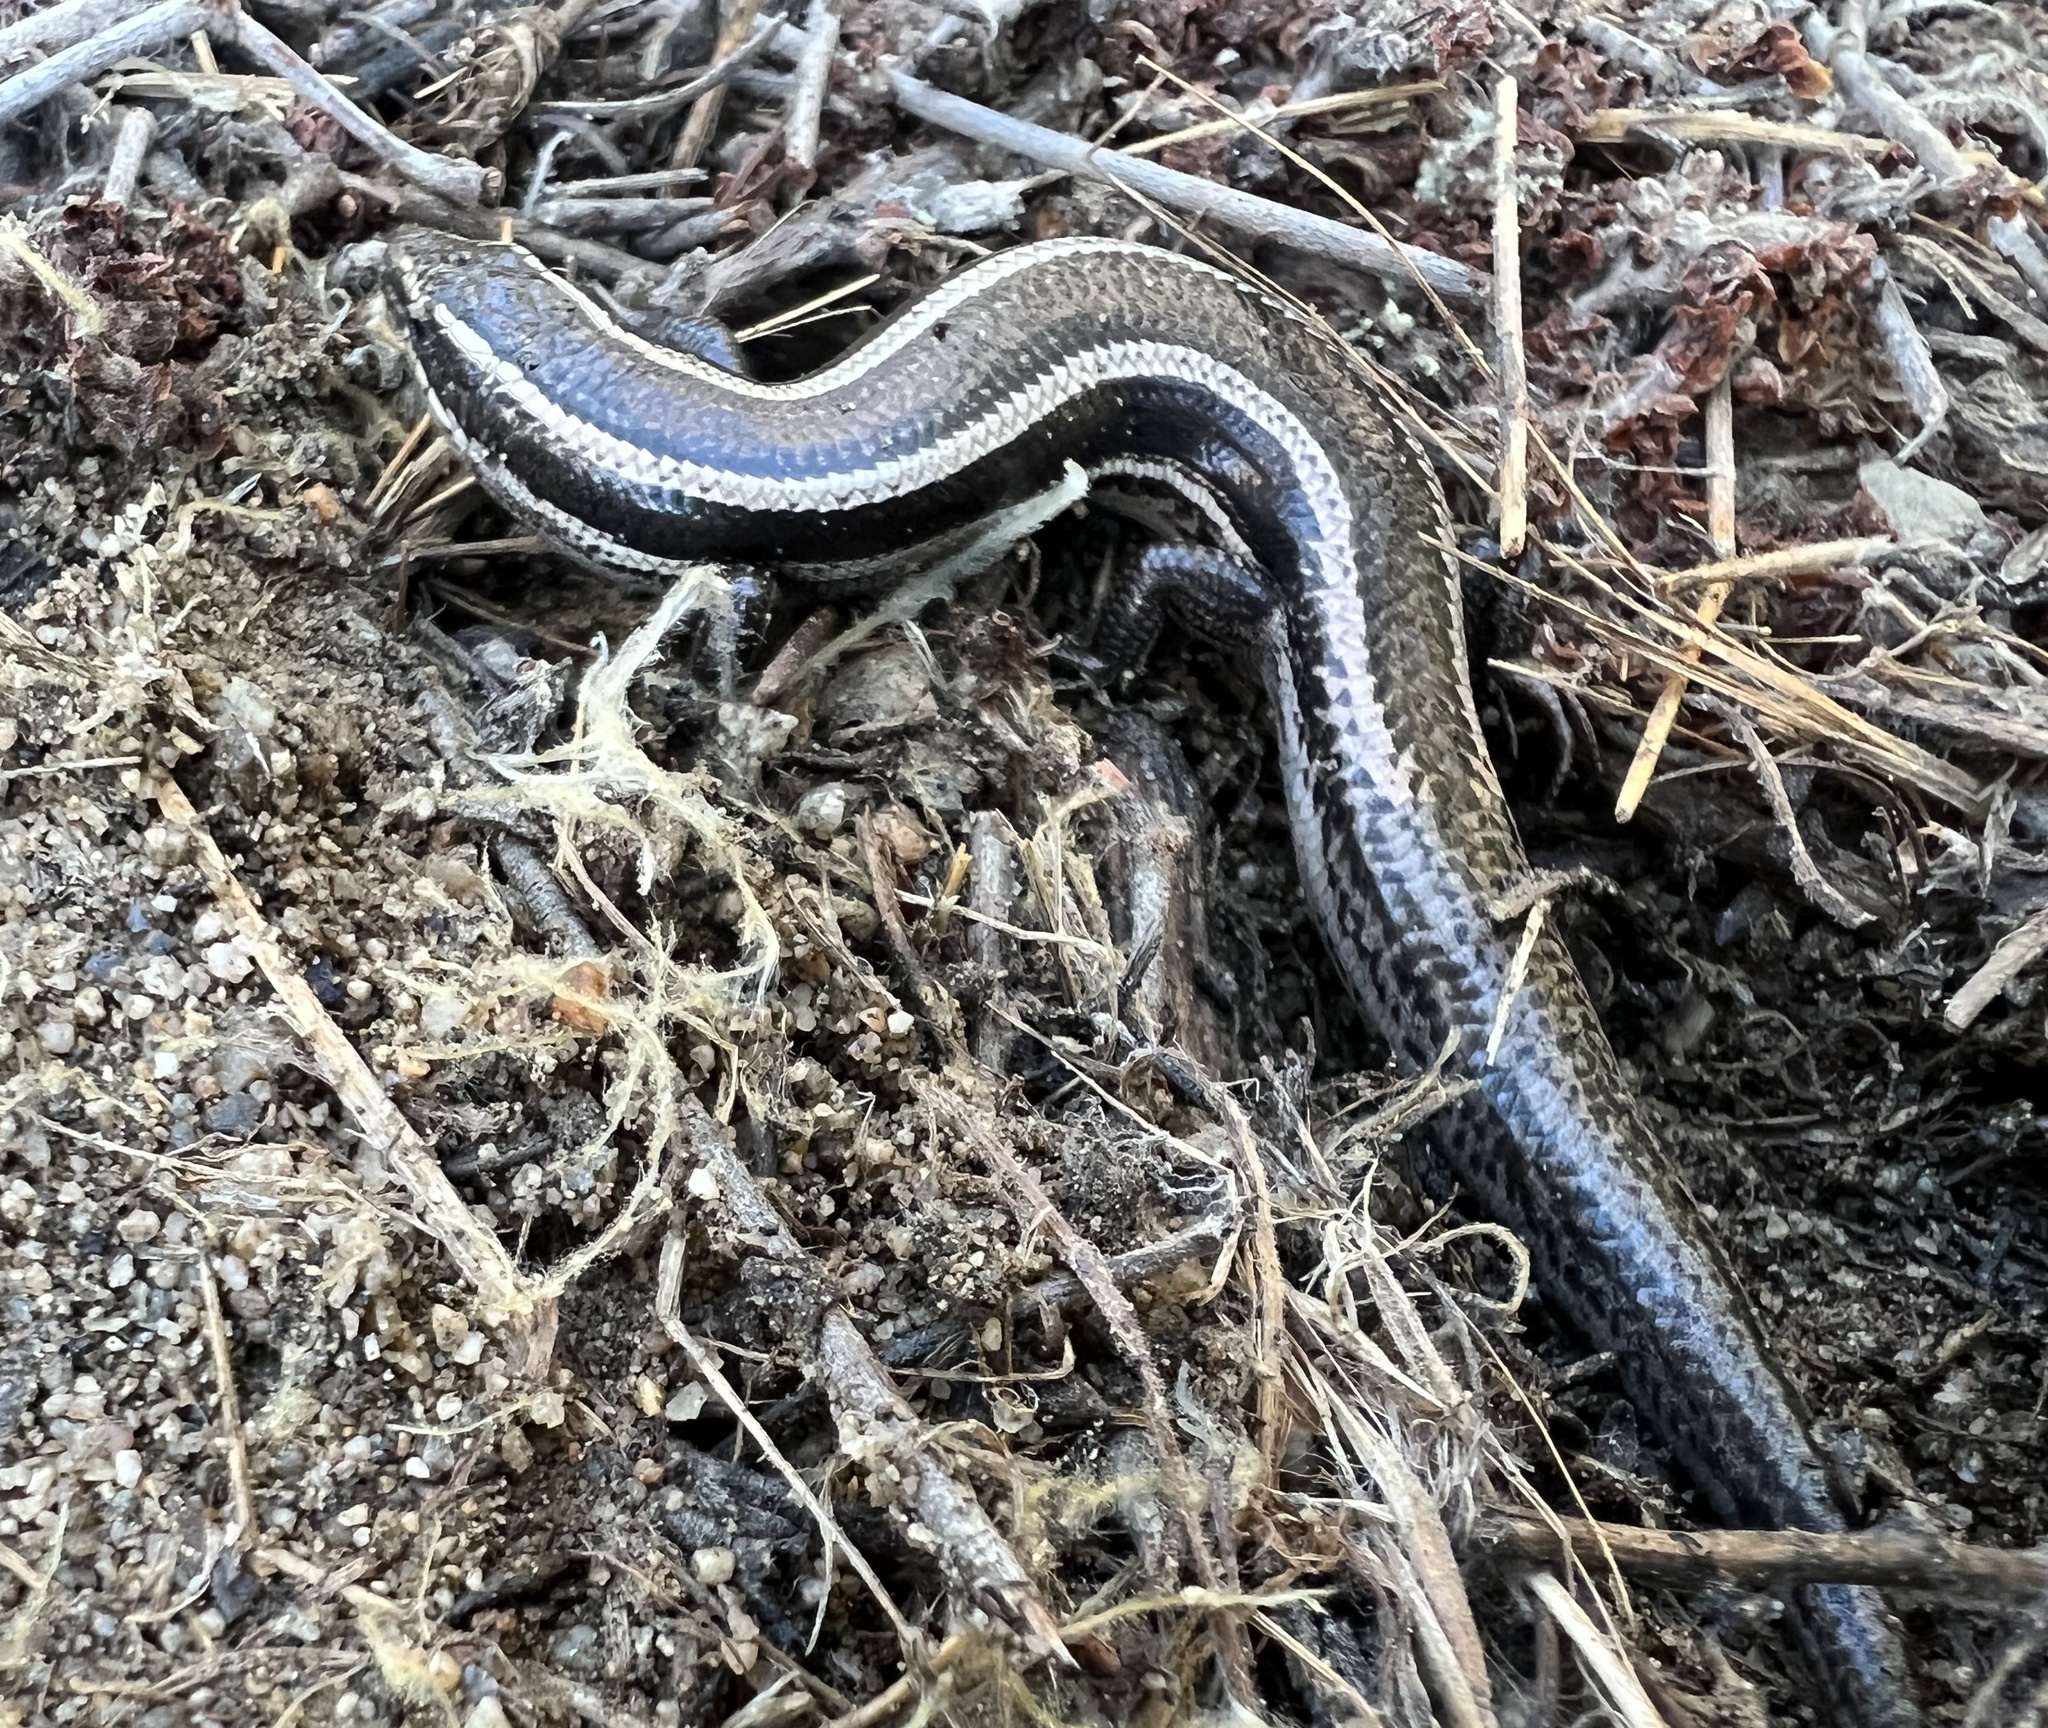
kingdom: Animalia
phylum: Chordata
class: Squamata
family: Scincidae
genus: Plestiodon
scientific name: Plestiodon skiltonianus
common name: Coronado island skink [interparietalis]
